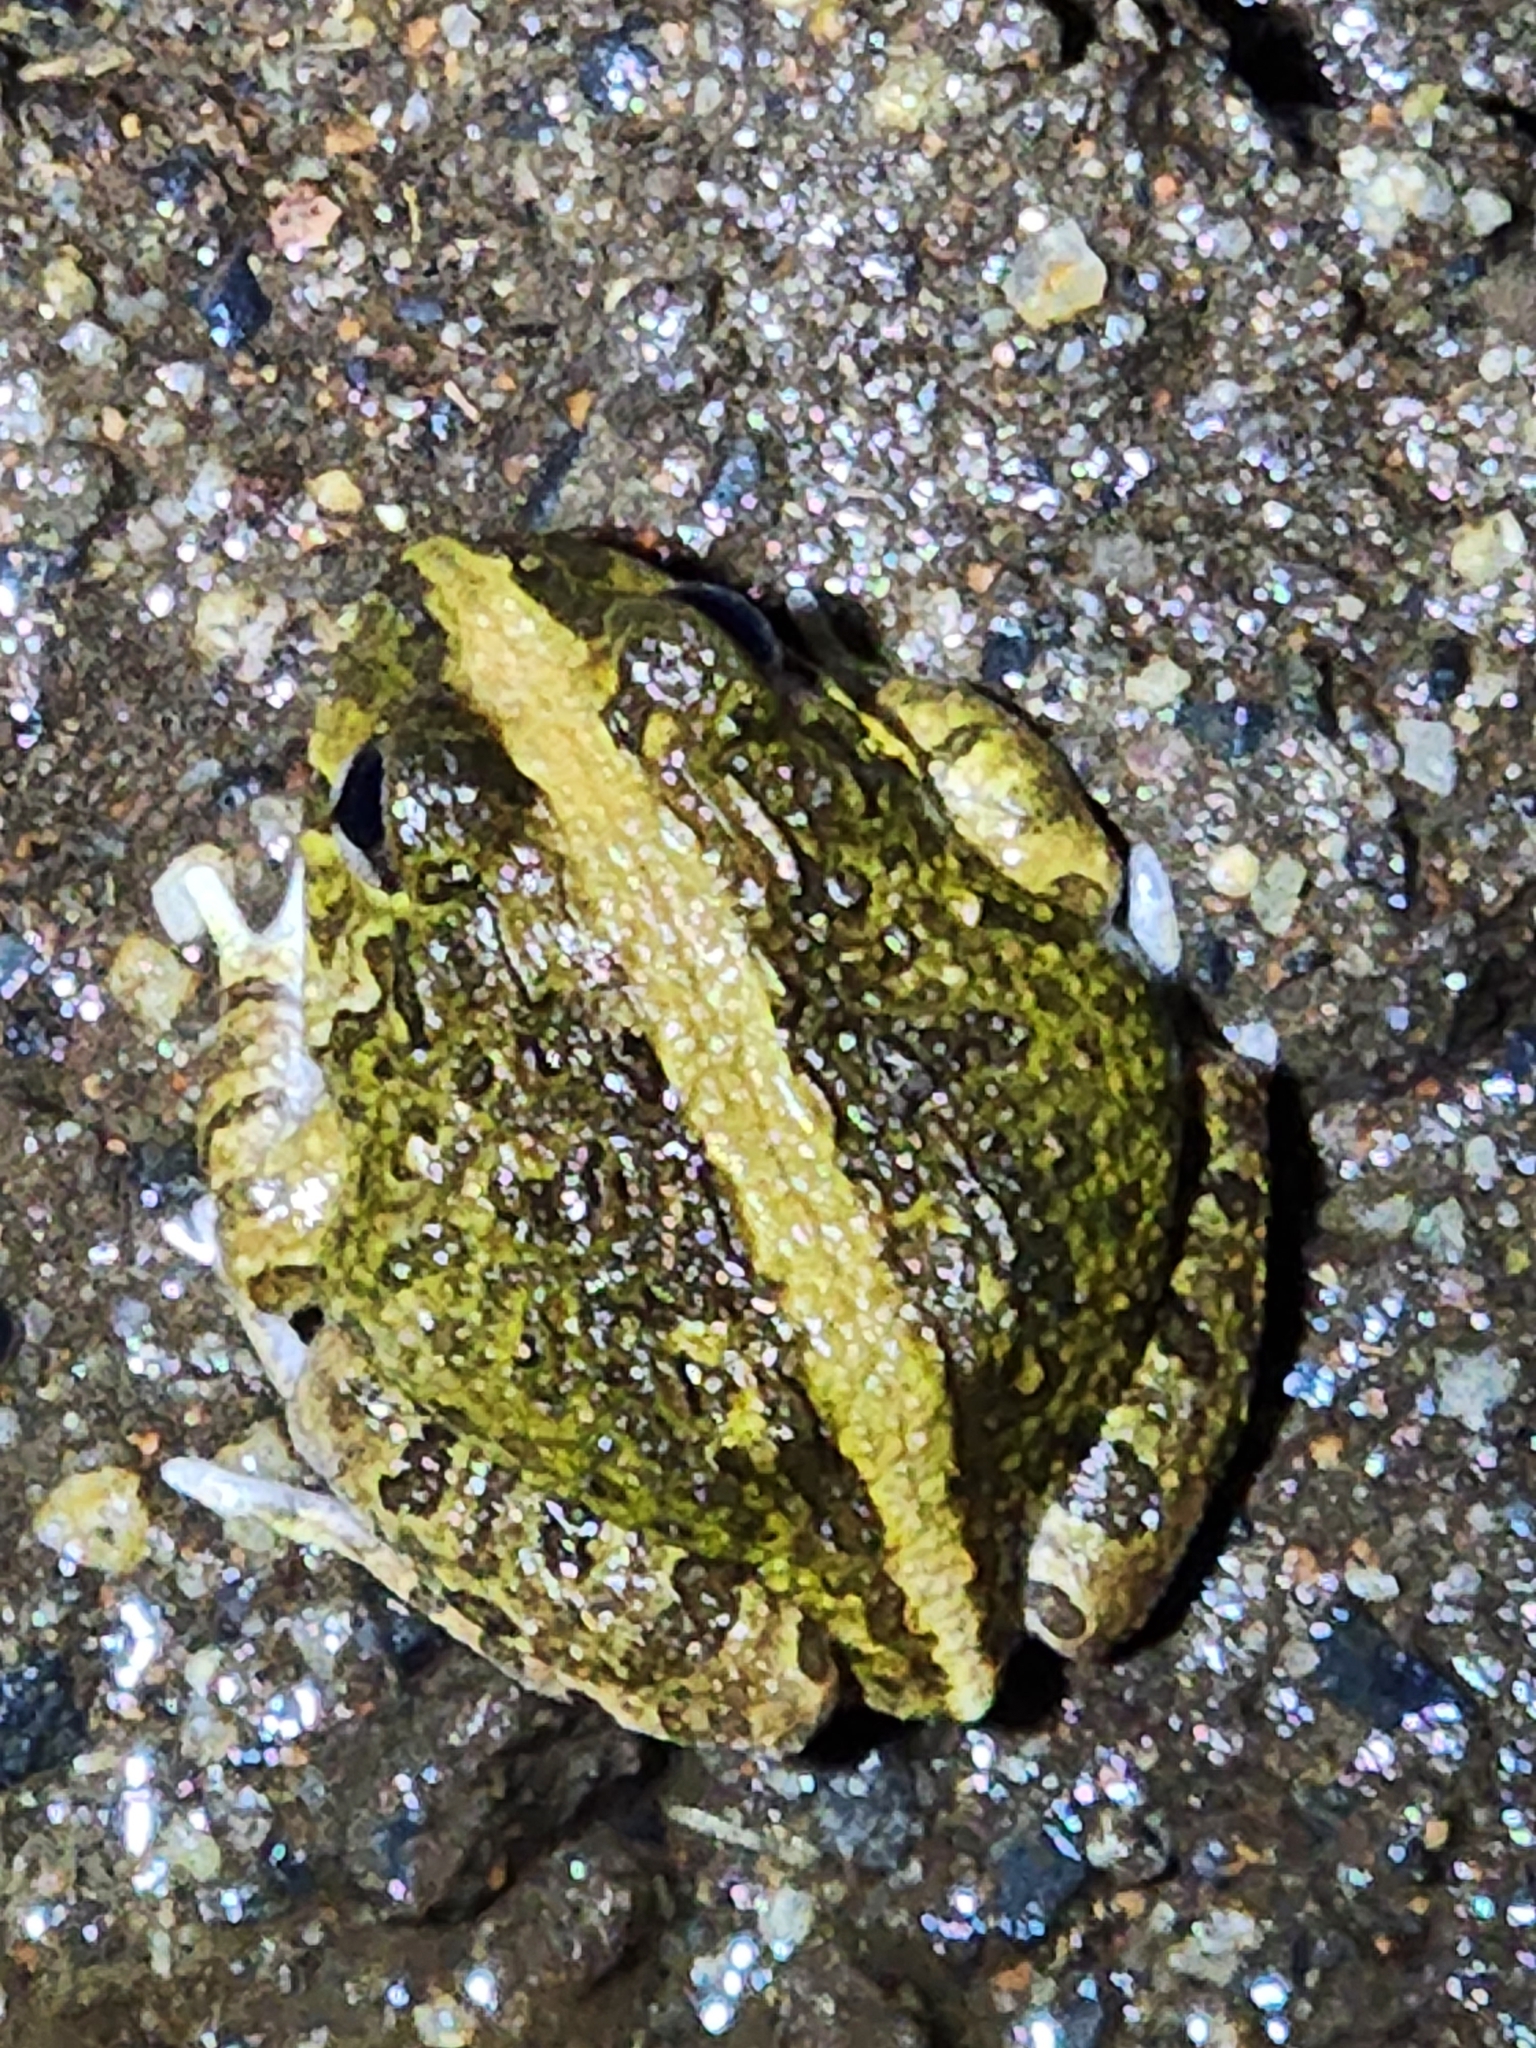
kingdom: Animalia
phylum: Chordata
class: Amphibia
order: Anura
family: Limnodynastidae
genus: Platyplectrum
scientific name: Platyplectrum ornatum
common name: Ornate burrowing frog
